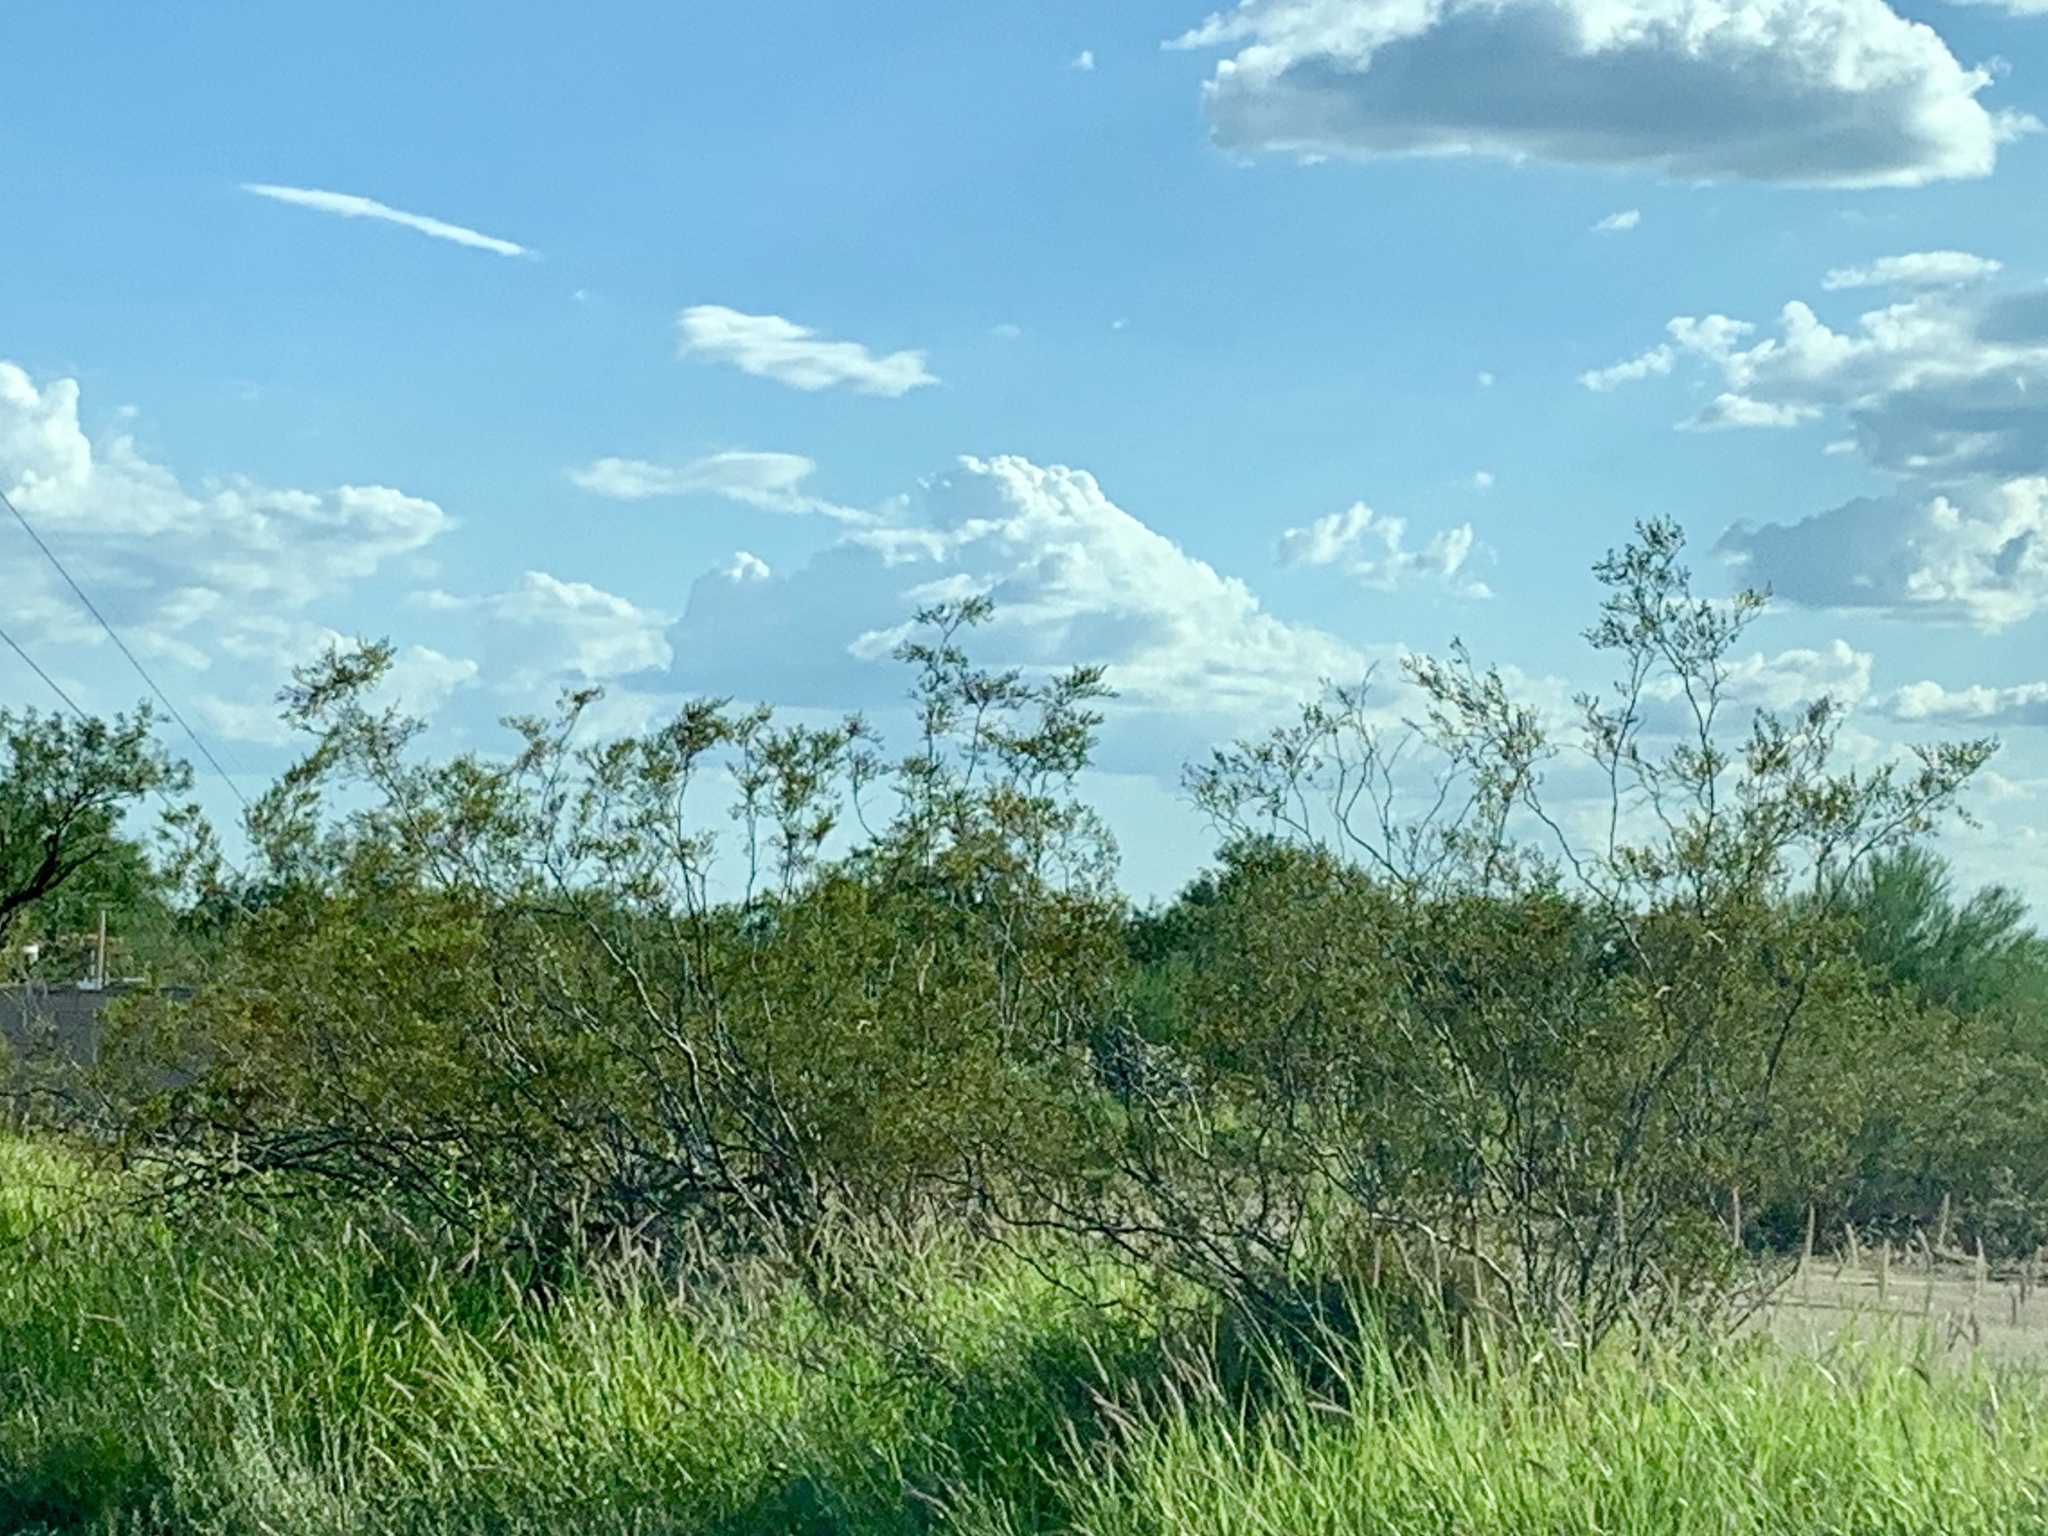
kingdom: Plantae
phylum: Tracheophyta
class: Magnoliopsida
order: Zygophyllales
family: Zygophyllaceae
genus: Larrea
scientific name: Larrea tridentata
